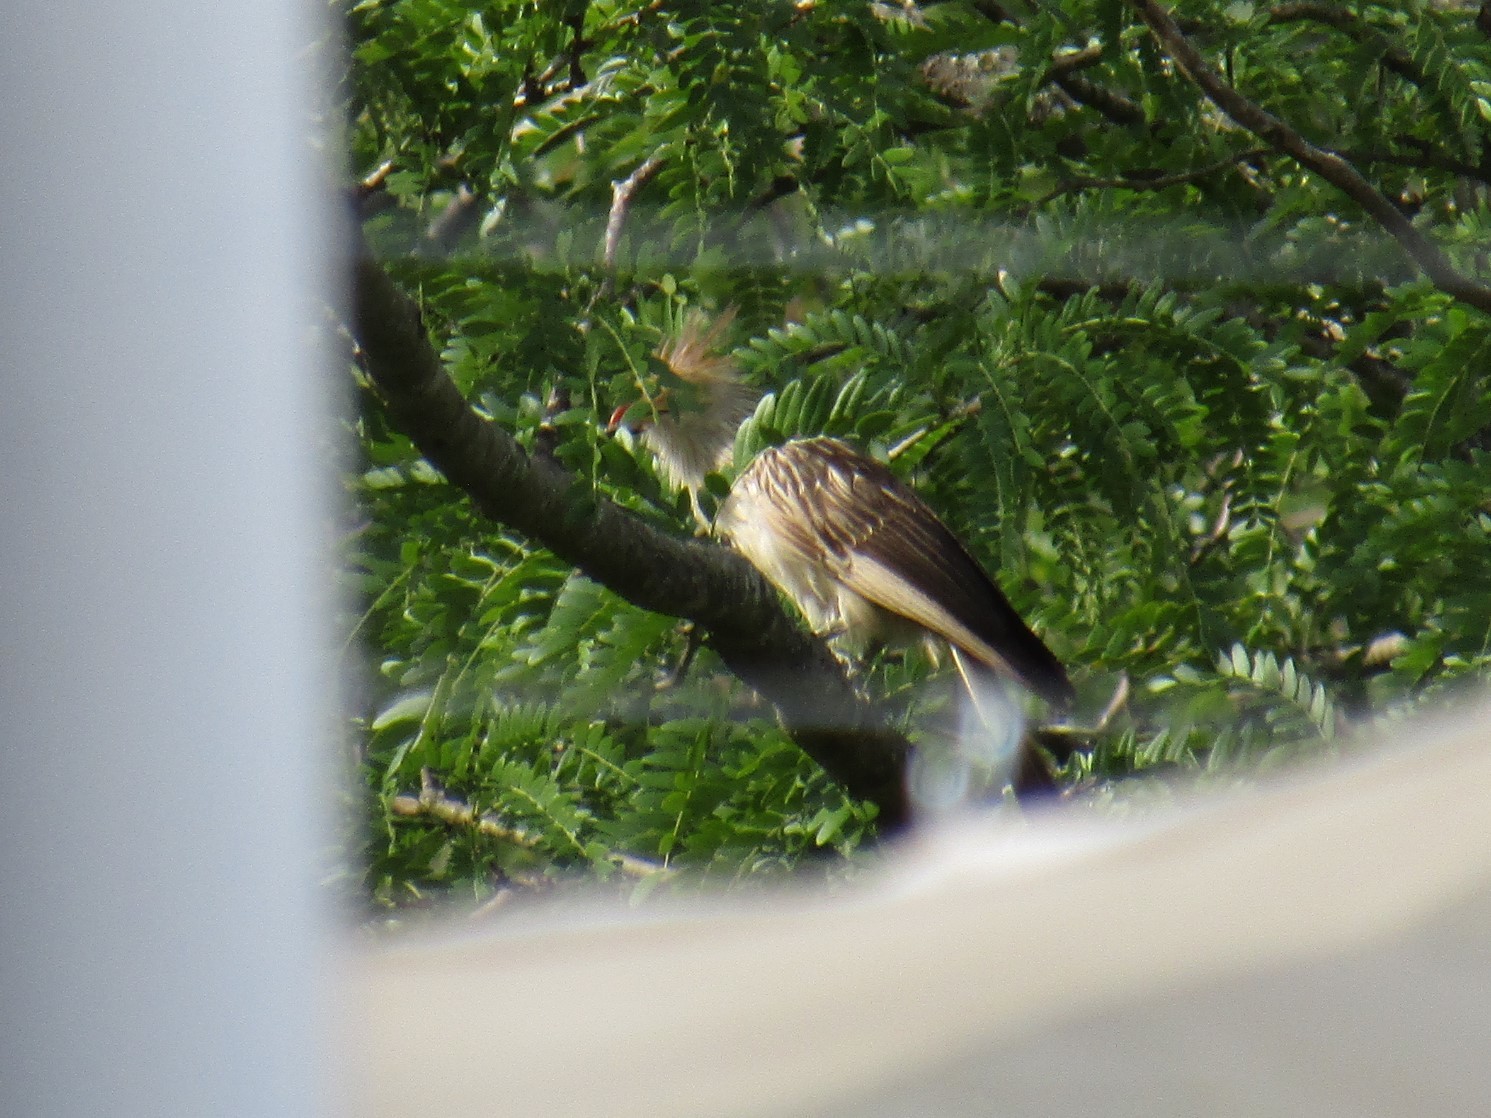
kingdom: Animalia
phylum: Chordata
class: Aves
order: Cuculiformes
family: Cuculidae
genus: Guira
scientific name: Guira guira
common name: Guira cuckoo
